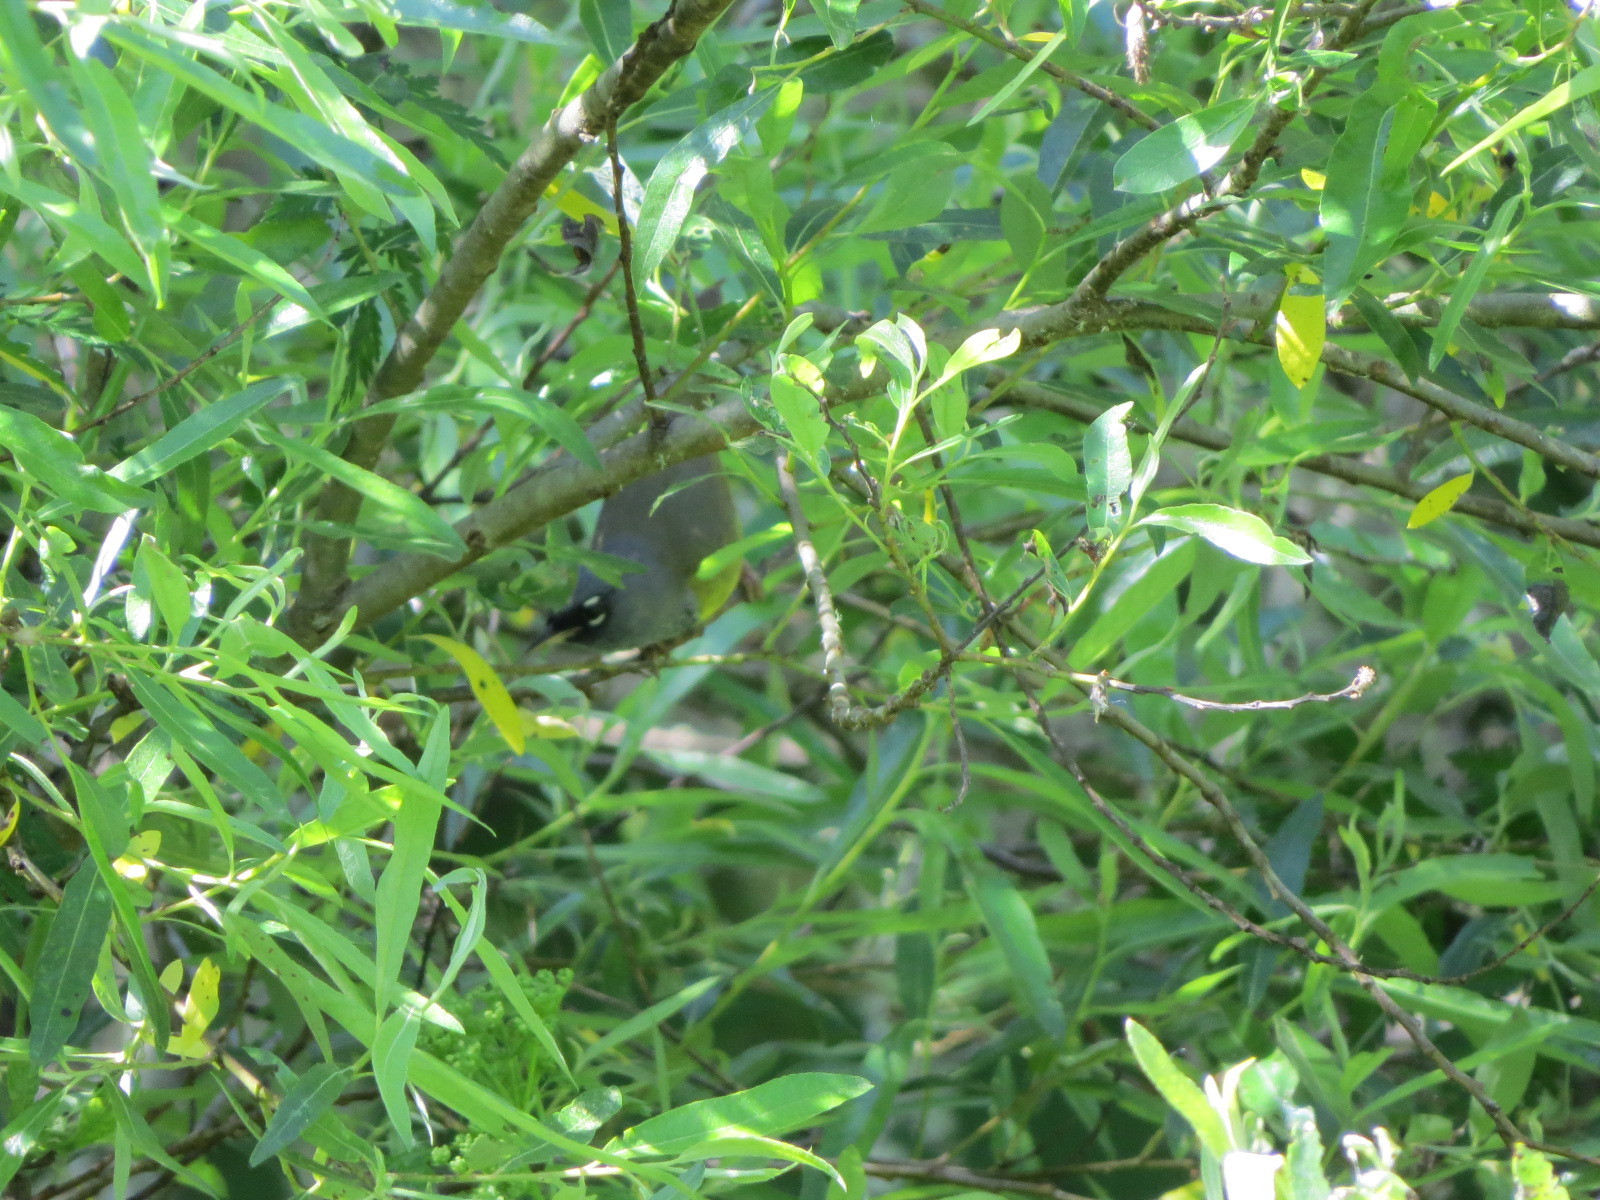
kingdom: Animalia
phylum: Chordata
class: Aves
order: Passeriformes
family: Parulidae
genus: Geothlypis
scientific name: Geothlypis tolmiei
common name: Macgillivray's warbler
